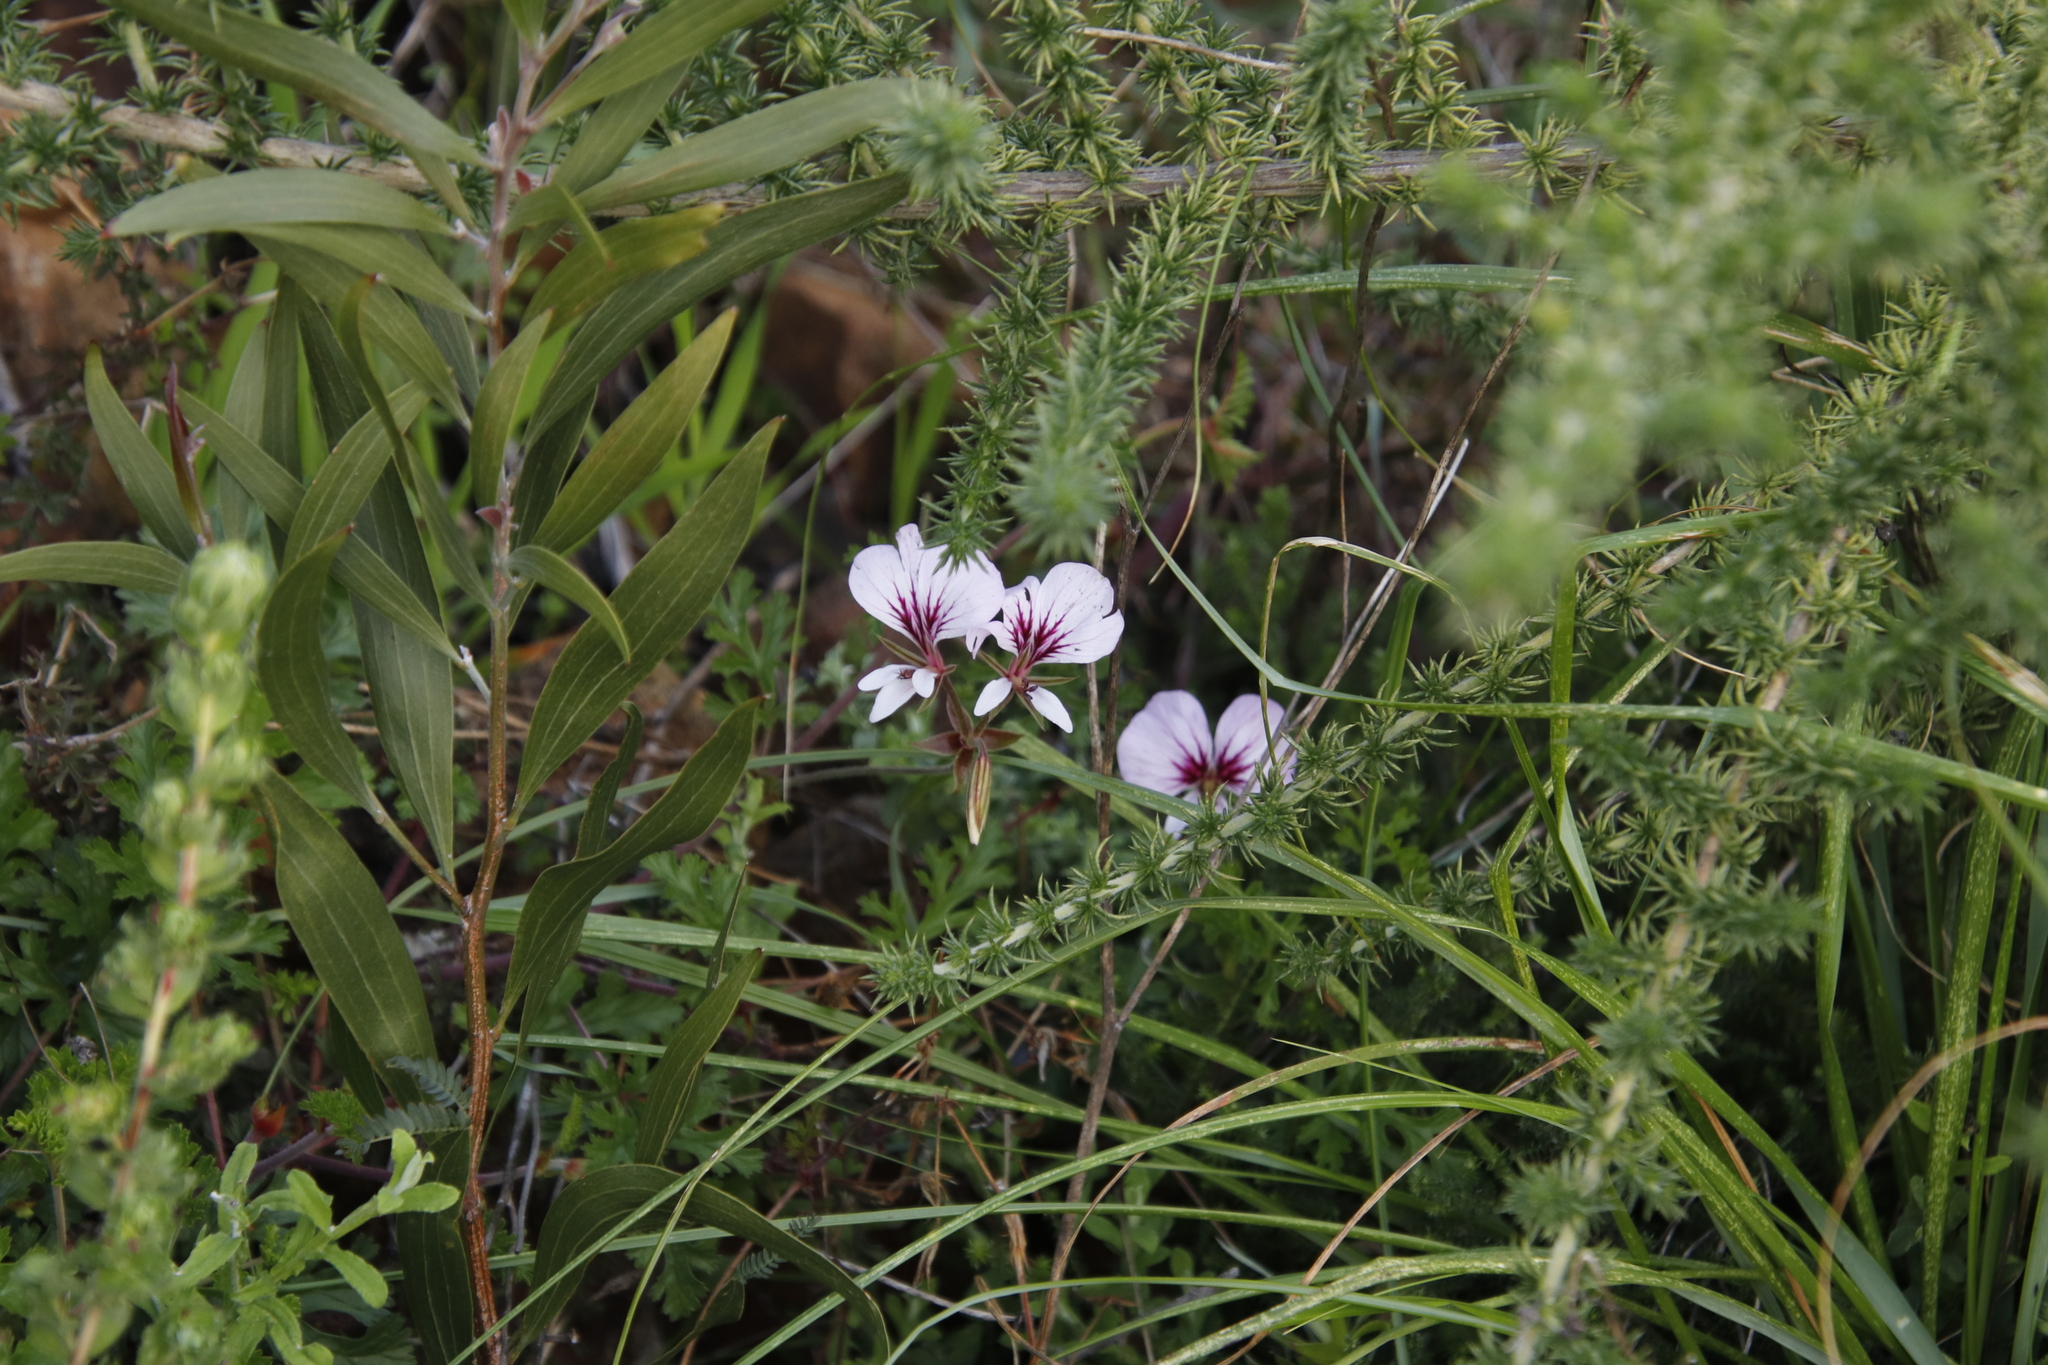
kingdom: Plantae
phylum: Tracheophyta
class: Magnoliopsida
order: Geraniales
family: Geraniaceae
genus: Pelargonium
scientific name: Pelargonium longicaule
